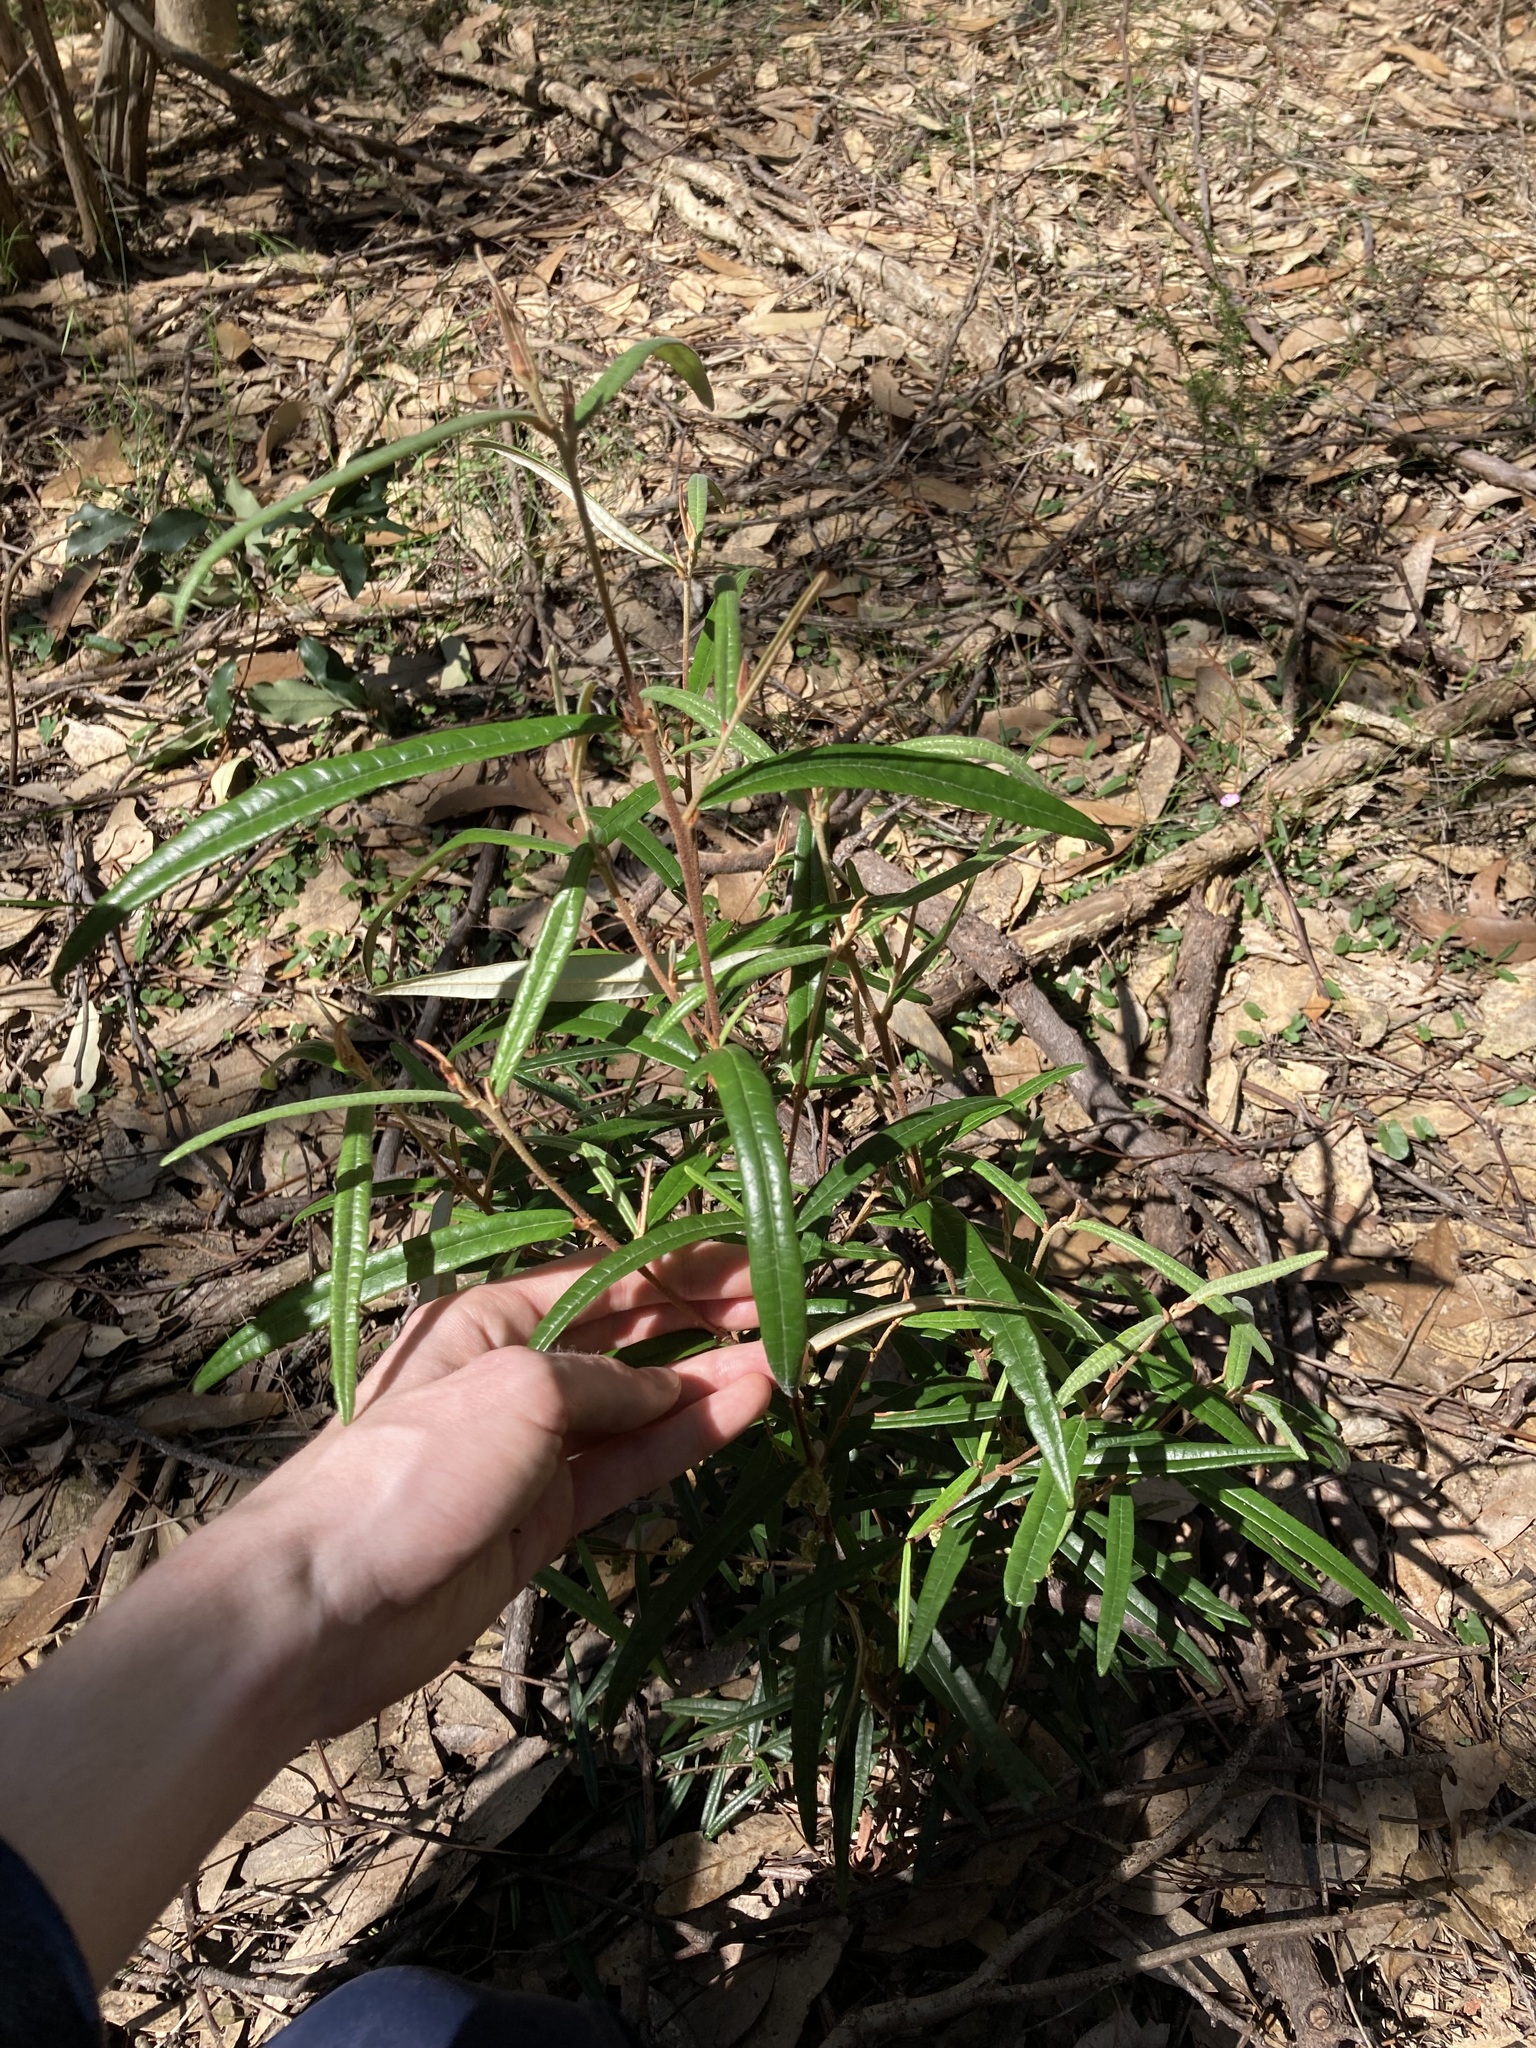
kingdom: Plantae
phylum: Tracheophyta
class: Magnoliopsida
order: Malvales
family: Malvaceae
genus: Lasiopetalum
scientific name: Lasiopetalum parviflorum
